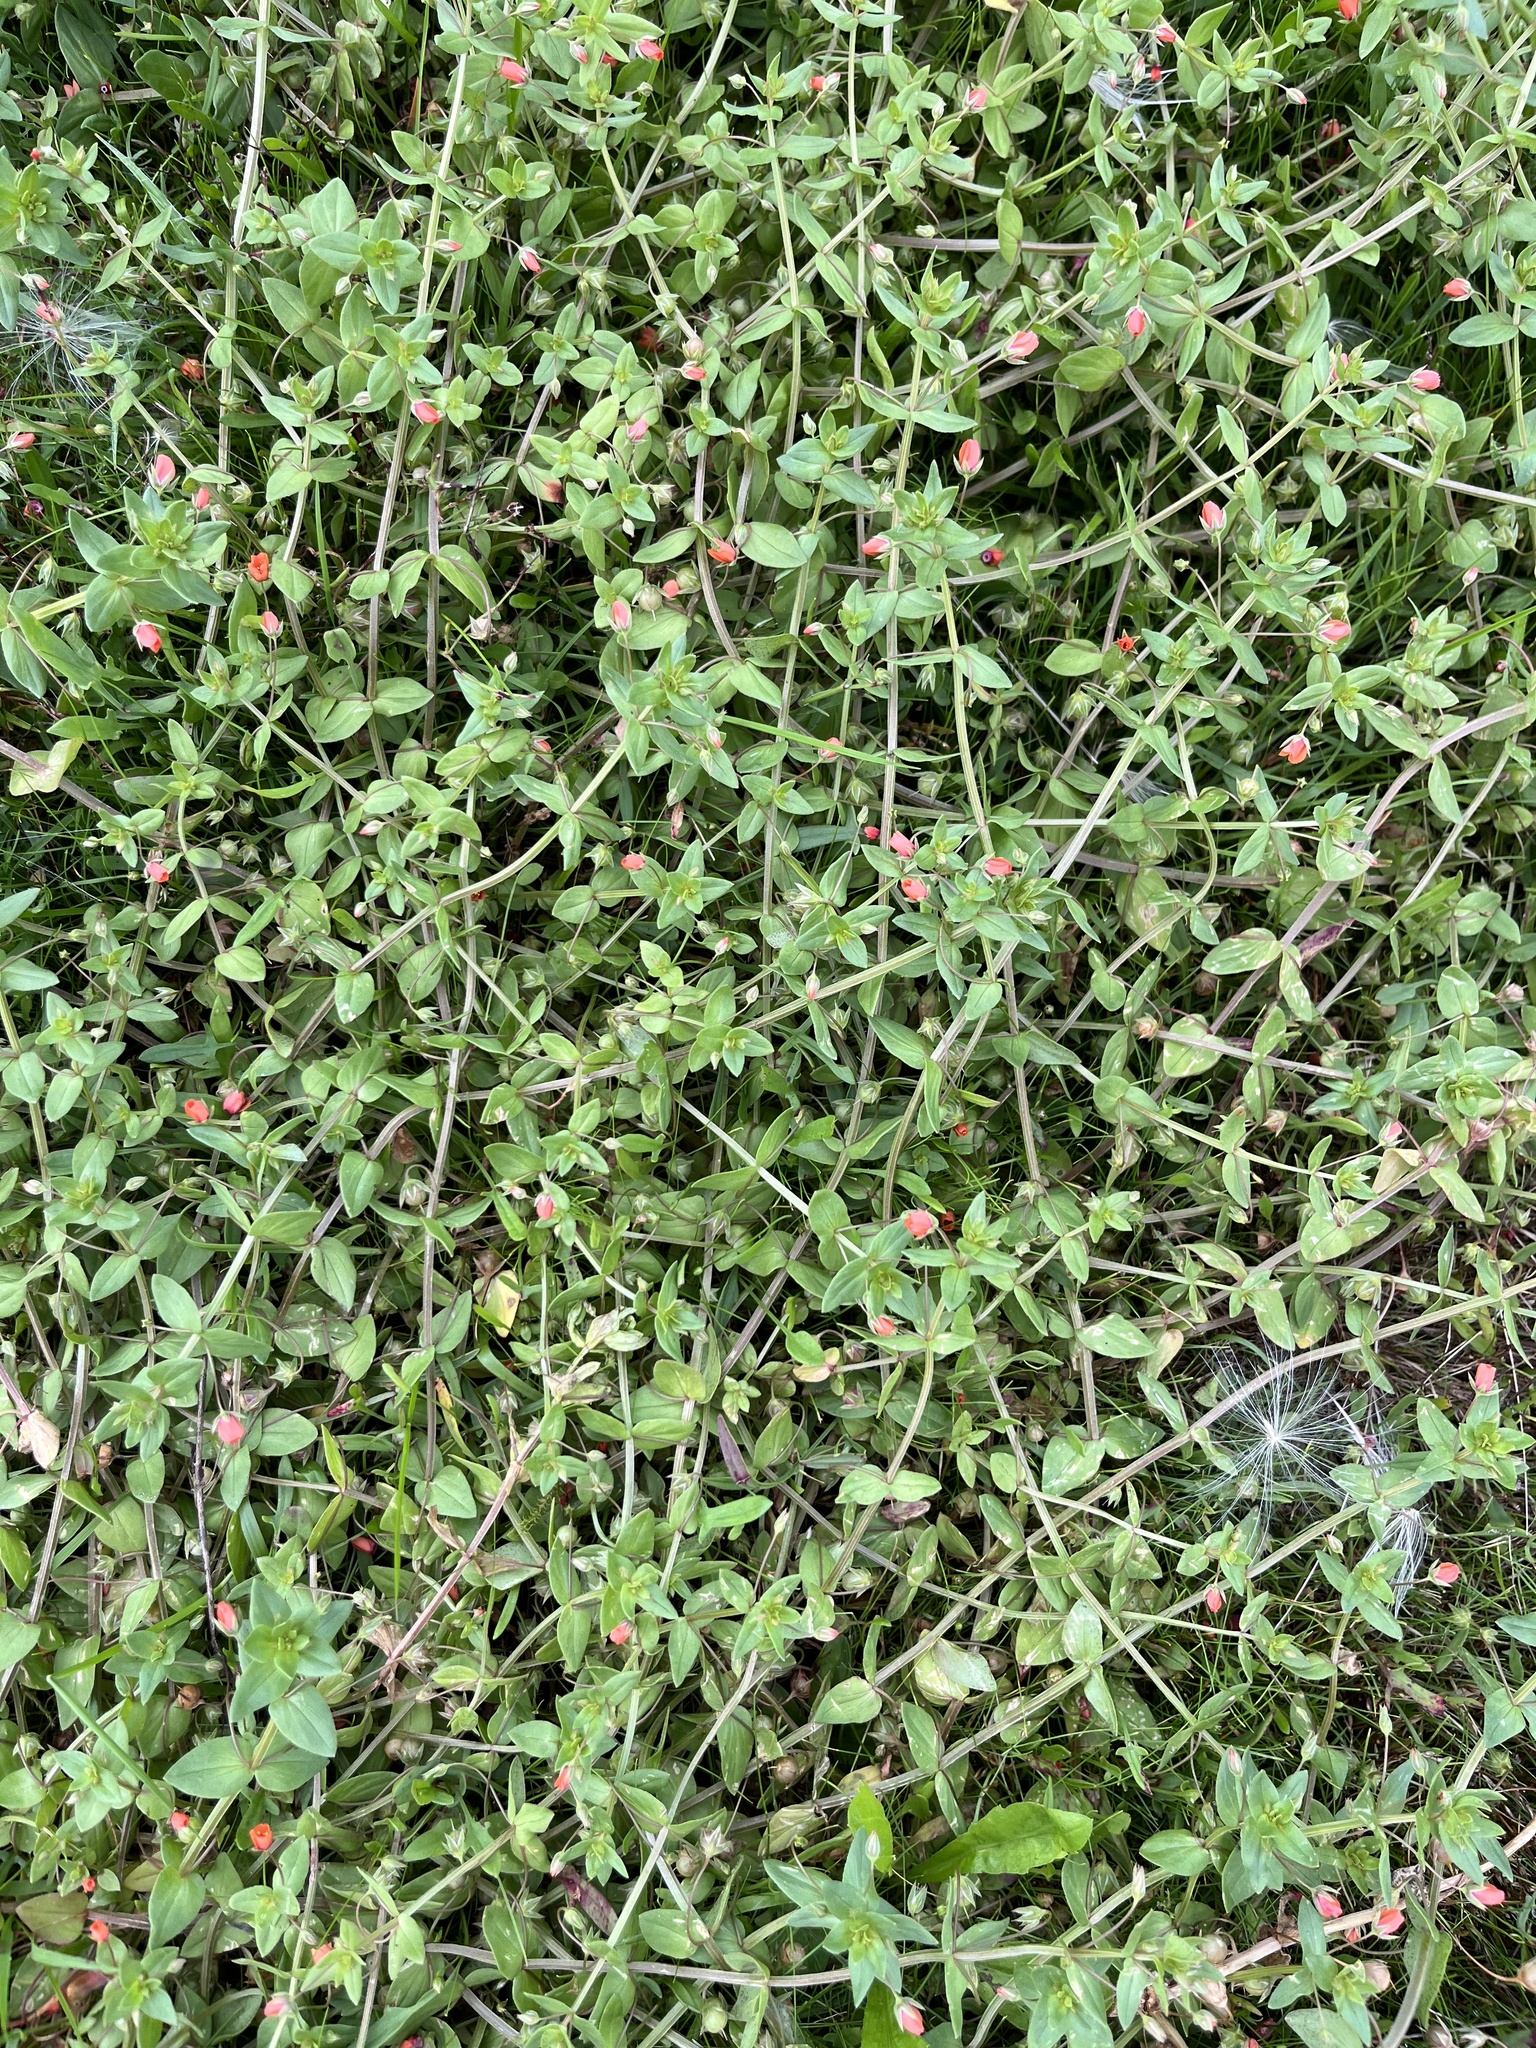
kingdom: Plantae
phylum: Tracheophyta
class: Magnoliopsida
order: Ericales
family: Primulaceae
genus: Lysimachia
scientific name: Lysimachia arvensis
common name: Scarlet pimpernel
